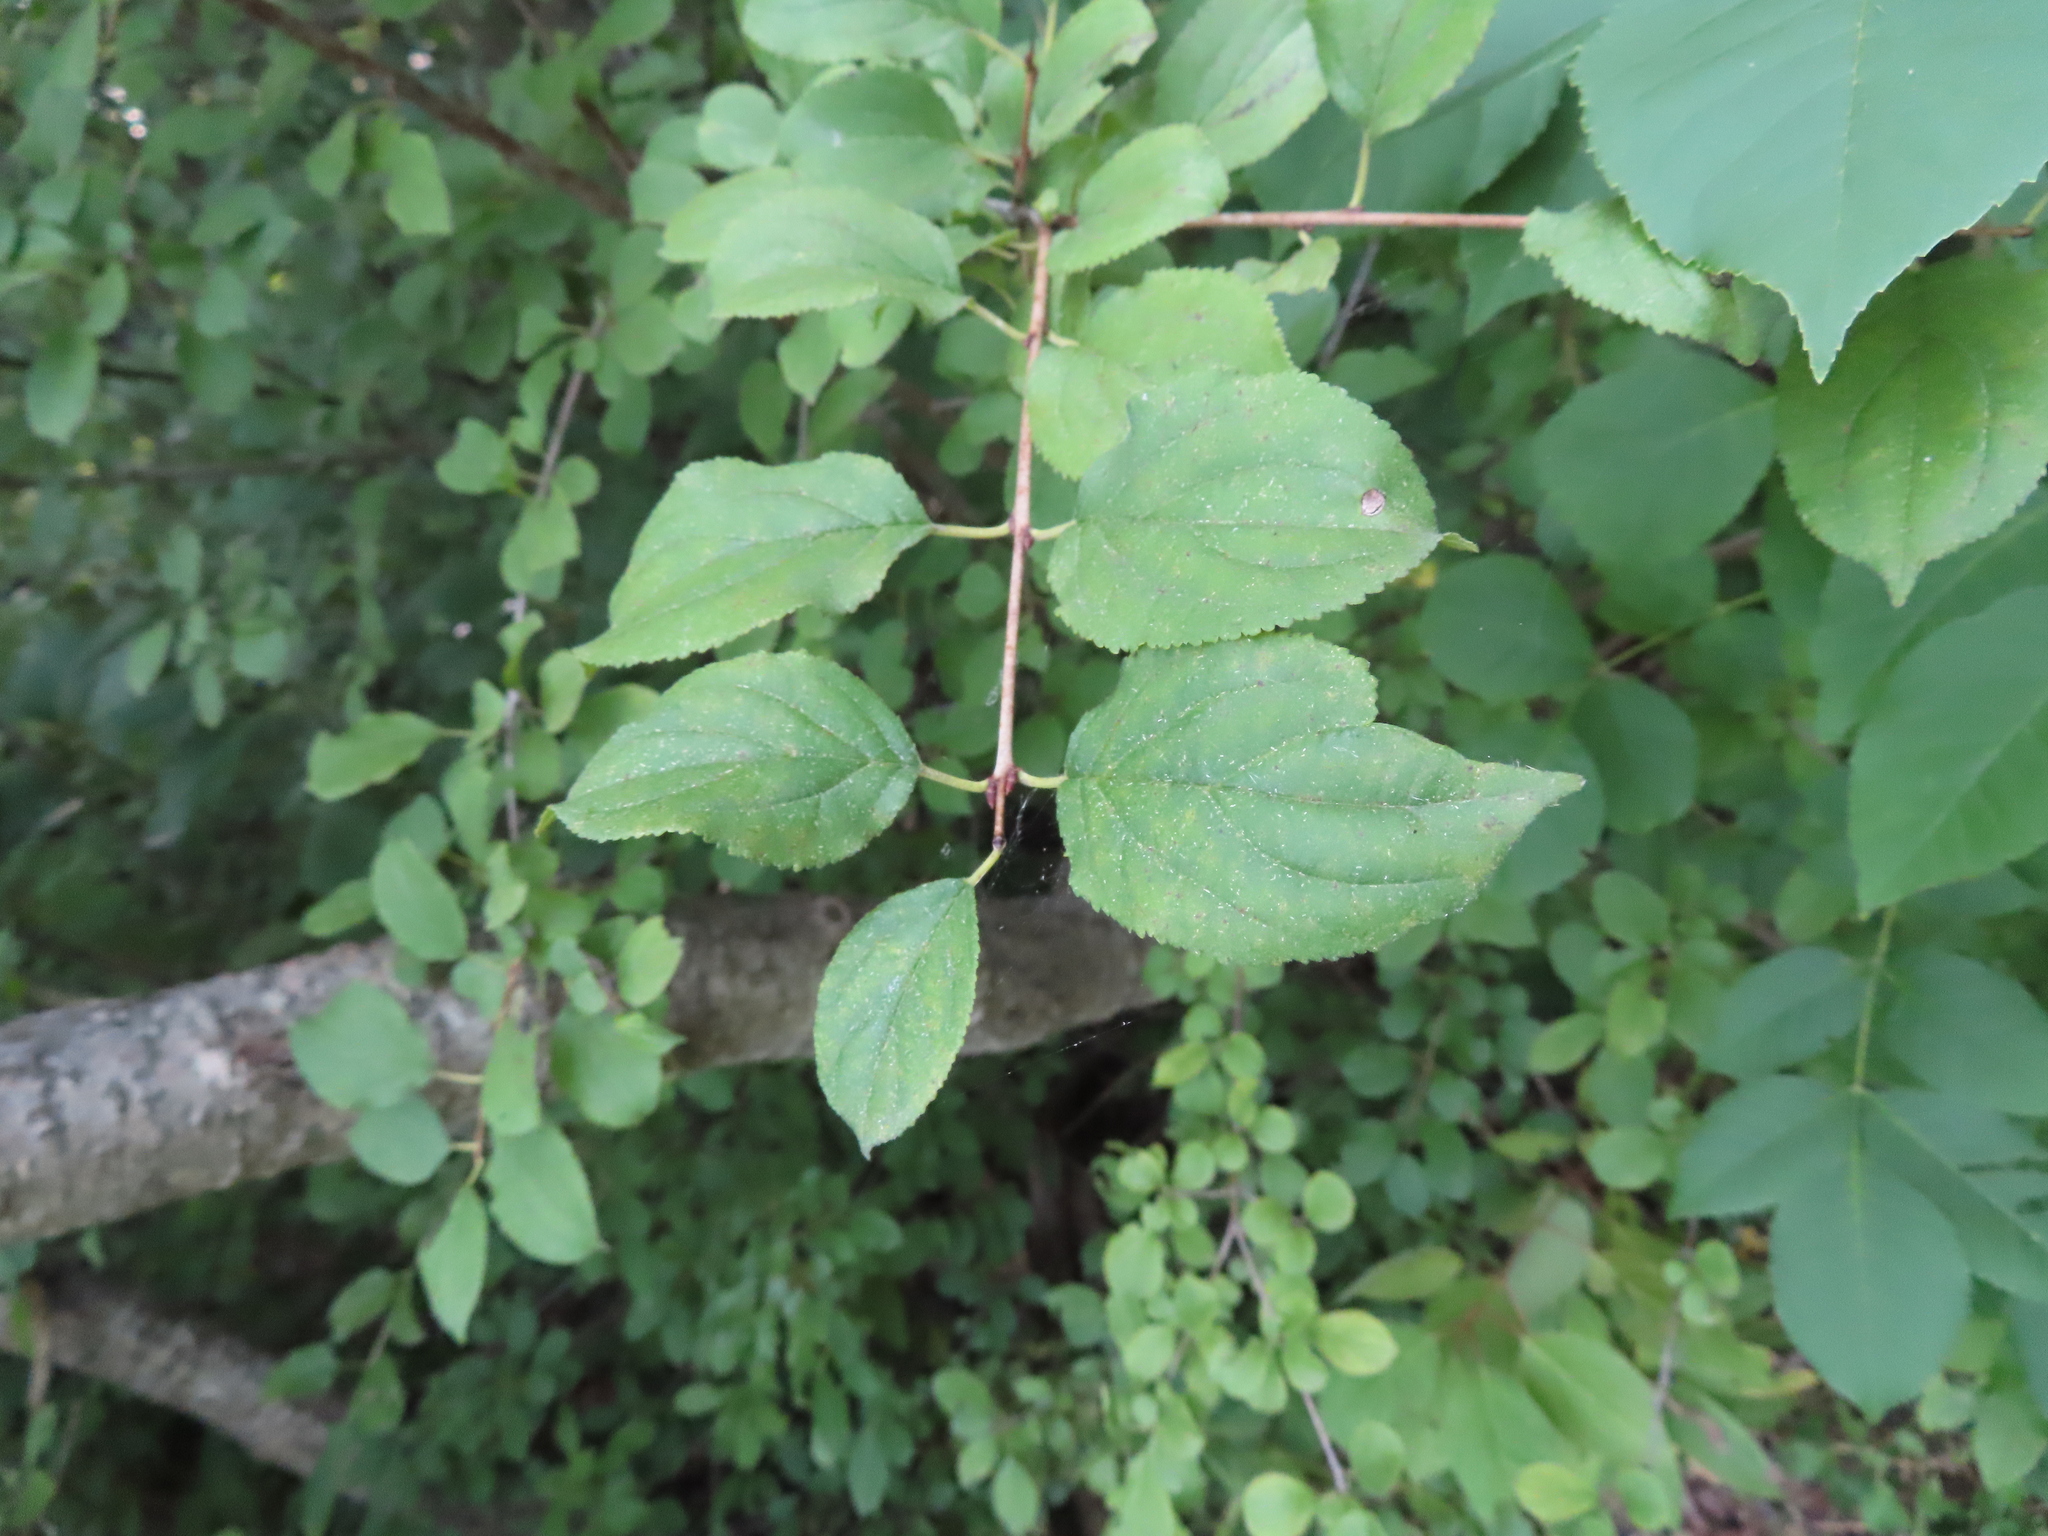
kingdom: Plantae
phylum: Tracheophyta
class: Magnoliopsida
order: Rosales
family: Rhamnaceae
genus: Rhamnus
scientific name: Rhamnus cathartica
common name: Common buckthorn
